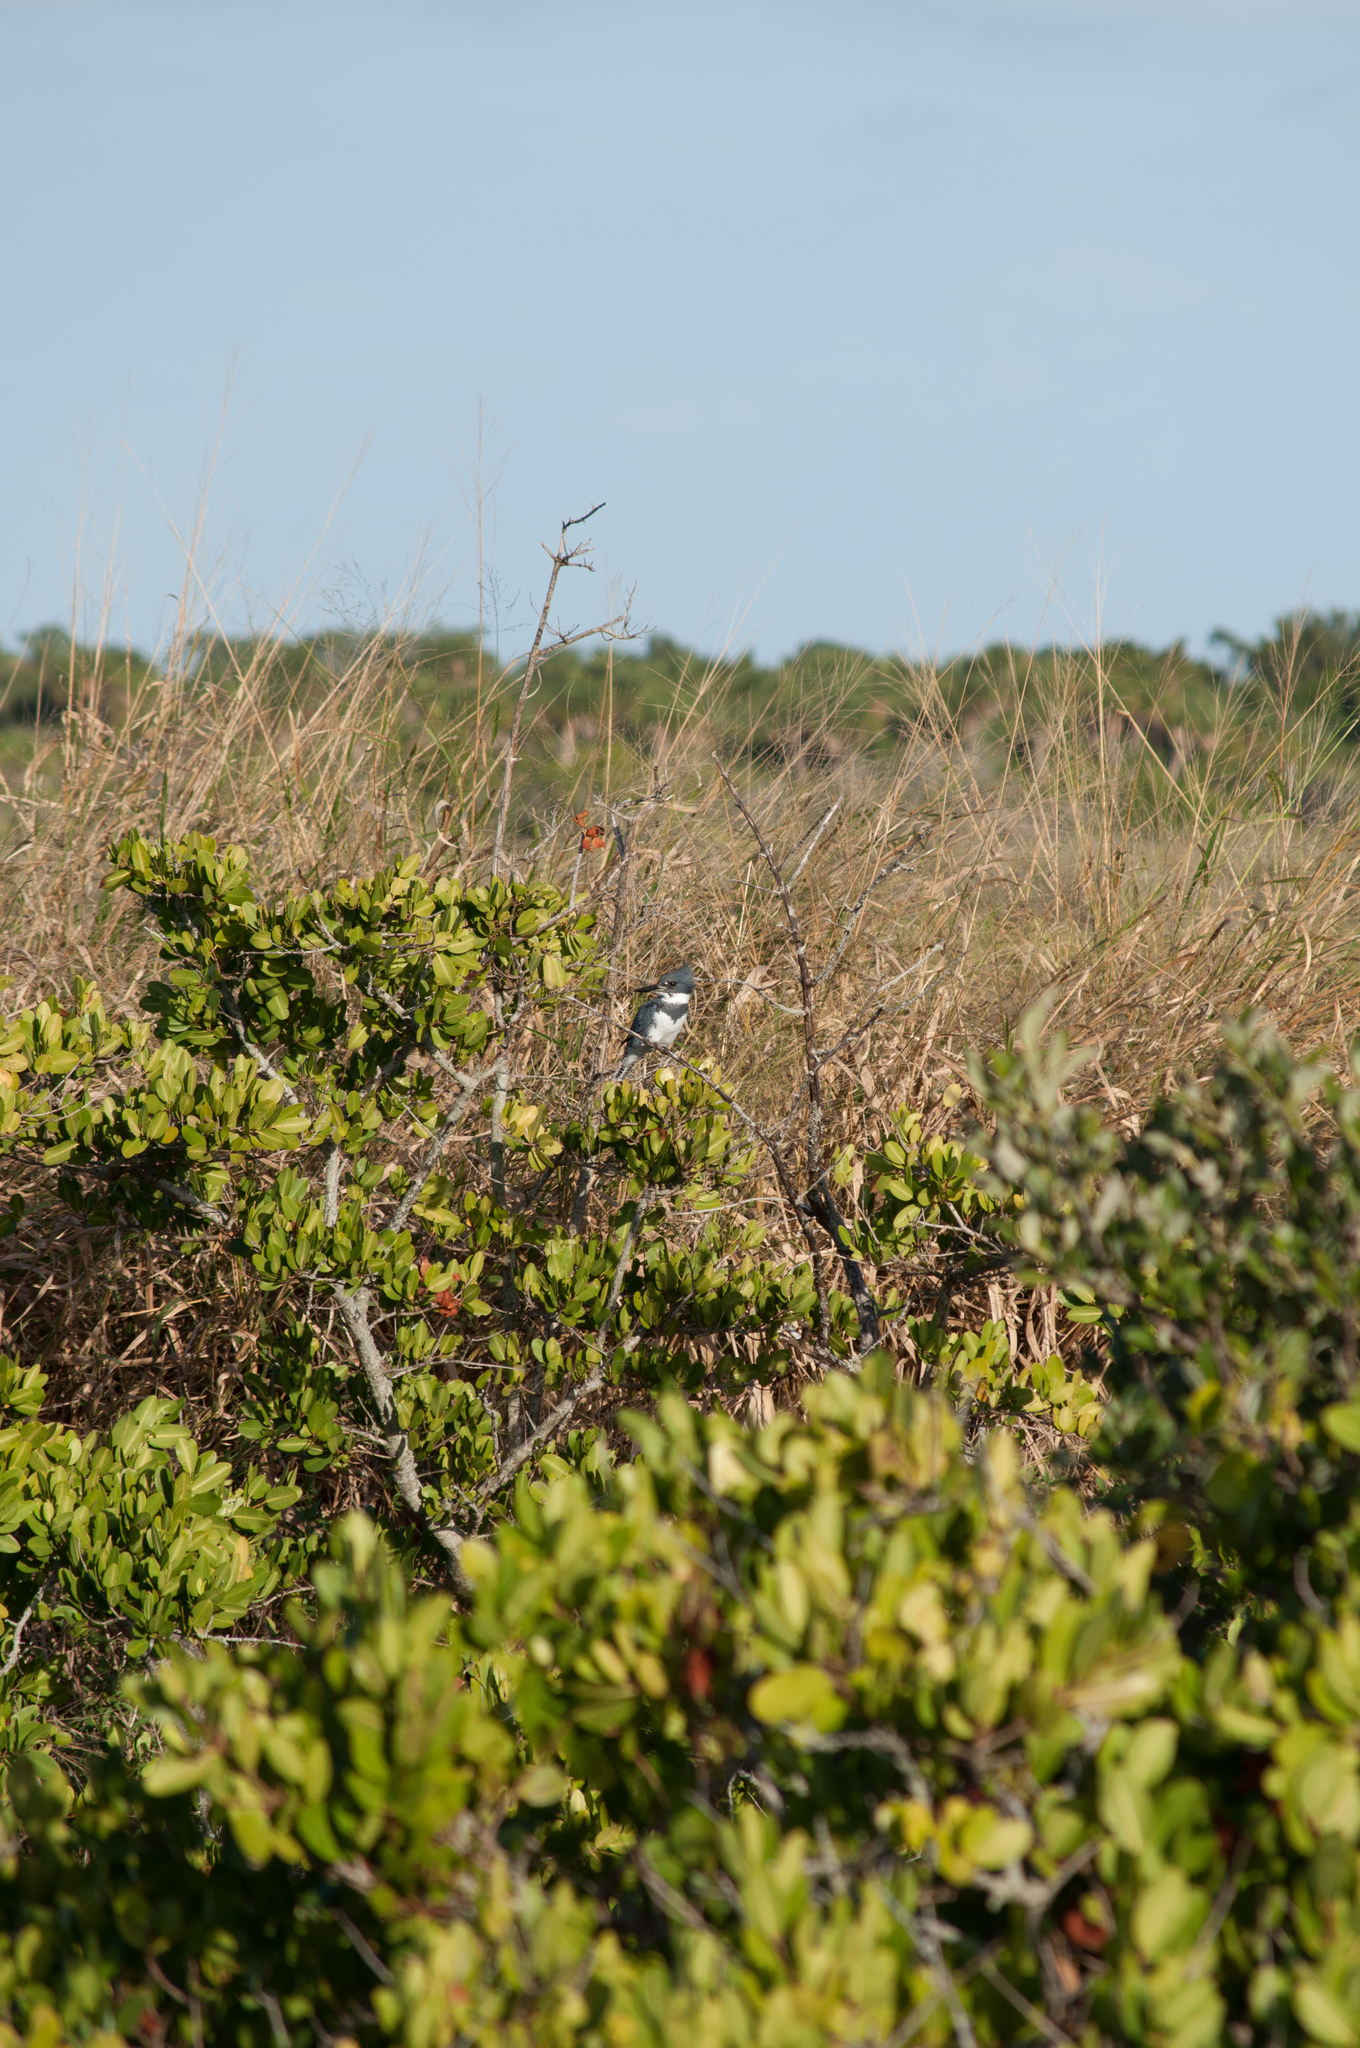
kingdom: Animalia
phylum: Chordata
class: Aves
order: Coraciiformes
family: Alcedinidae
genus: Megaceryle
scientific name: Megaceryle alcyon
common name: Belted kingfisher
